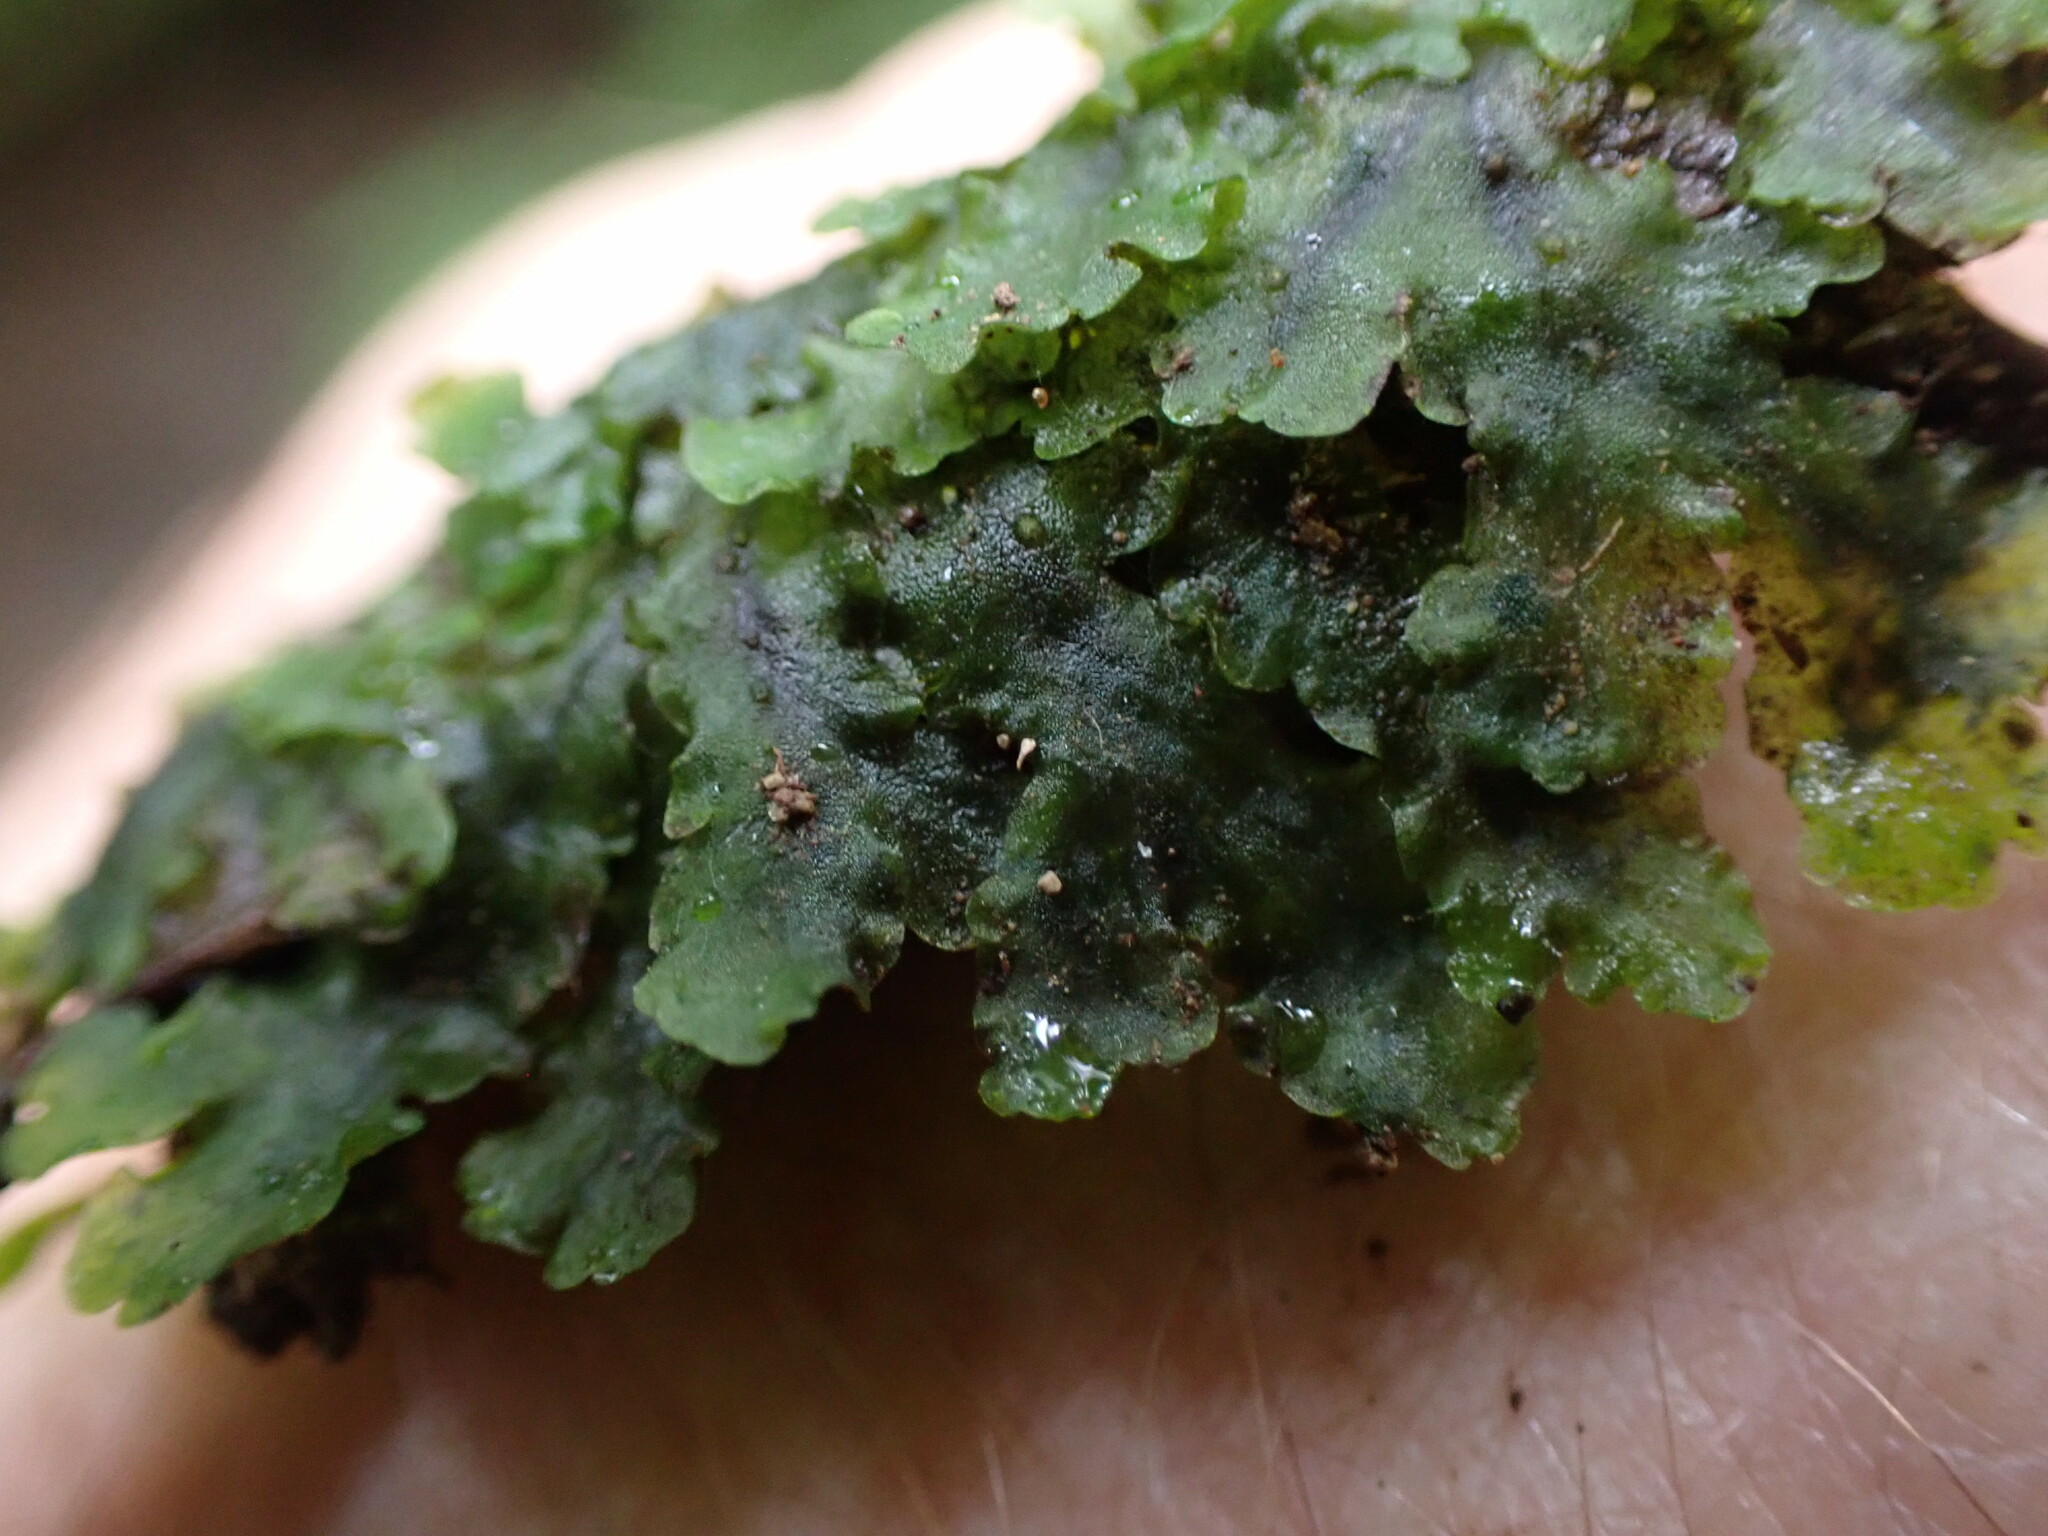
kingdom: Plantae
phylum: Marchantiophyta
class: Jungermanniopsida
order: Pelliales
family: Pelliaceae
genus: Pellia
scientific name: Pellia neesiana
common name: Nees  pellia
